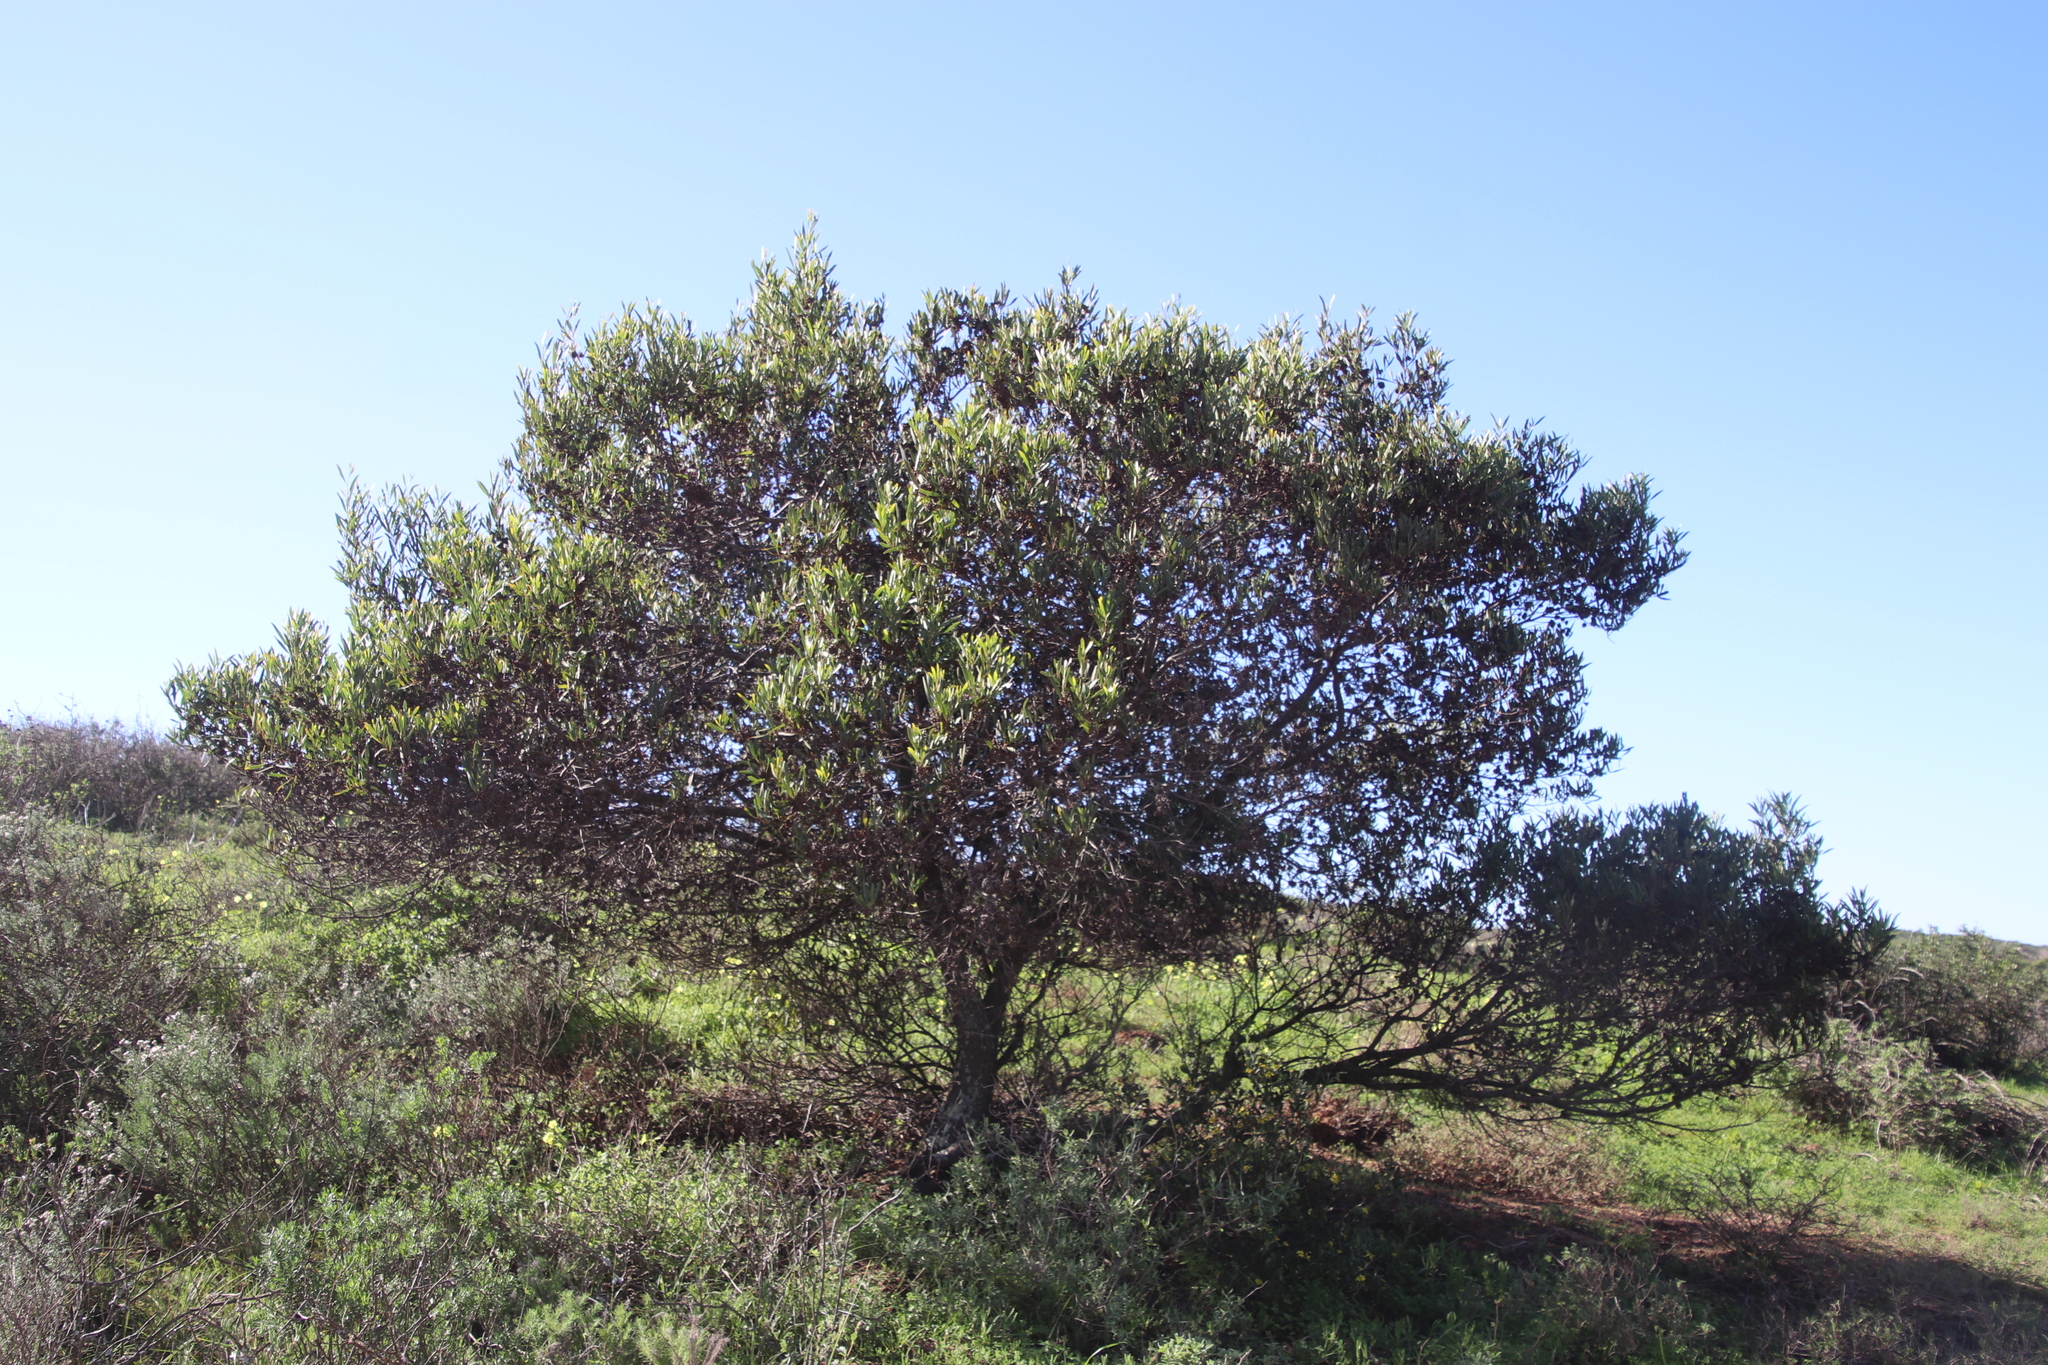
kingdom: Plantae
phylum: Tracheophyta
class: Magnoliopsida
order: Fabales
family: Fabaceae
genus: Acacia
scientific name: Acacia cyclops
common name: Coastal wattle
